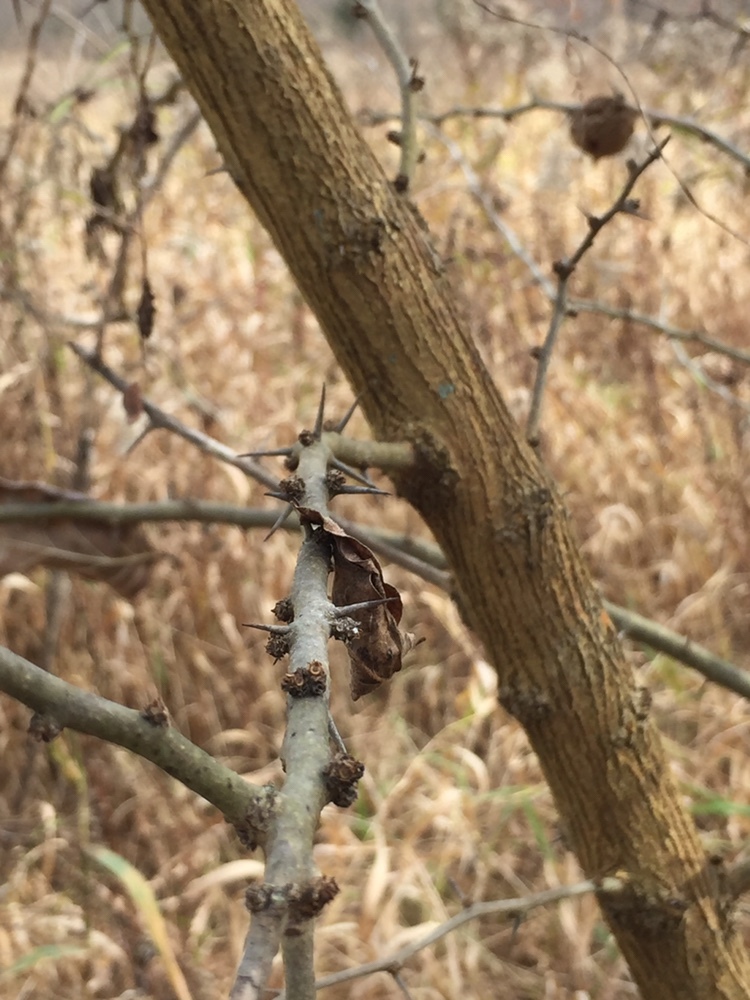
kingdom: Plantae
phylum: Tracheophyta
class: Magnoliopsida
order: Sapindales
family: Rutaceae
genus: Zanthoxylum
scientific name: Zanthoxylum americanum
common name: Northern prickly-ash
